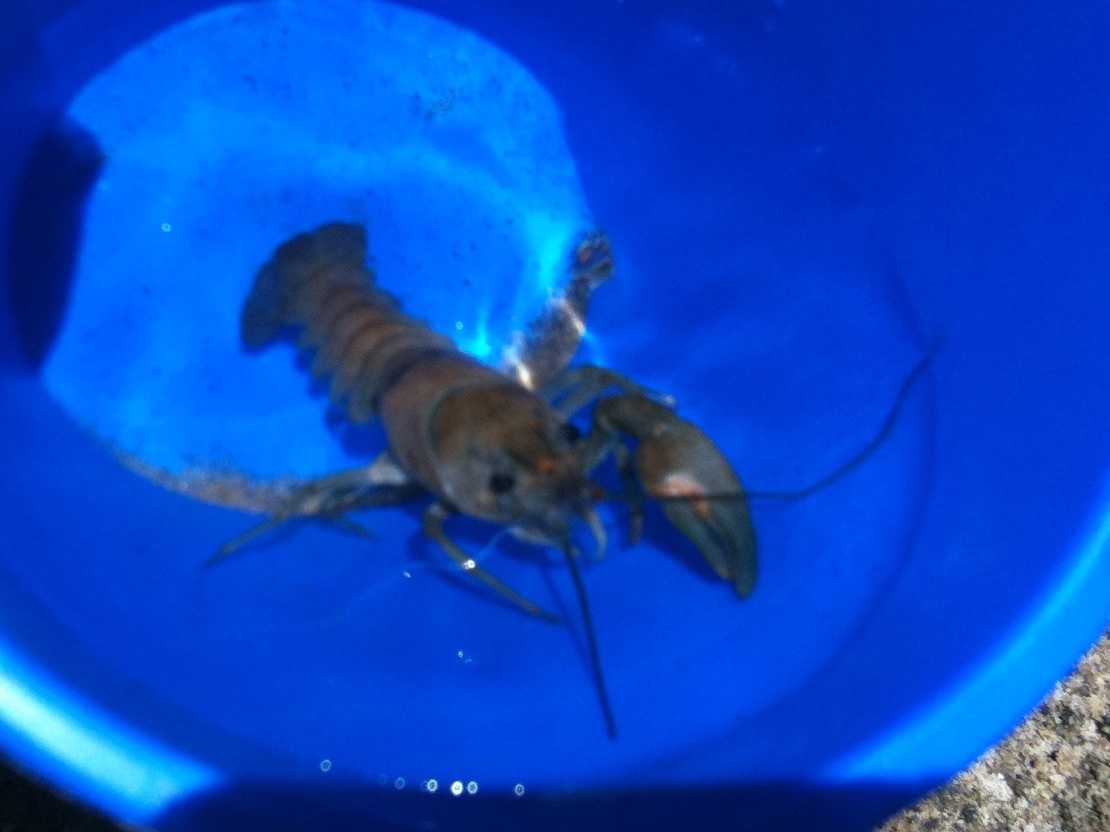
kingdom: Animalia
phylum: Arthropoda
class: Malacostraca
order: Decapoda
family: Astacidae
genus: Pacifastacus
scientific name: Pacifastacus leniusculus
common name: Signal crayfish
